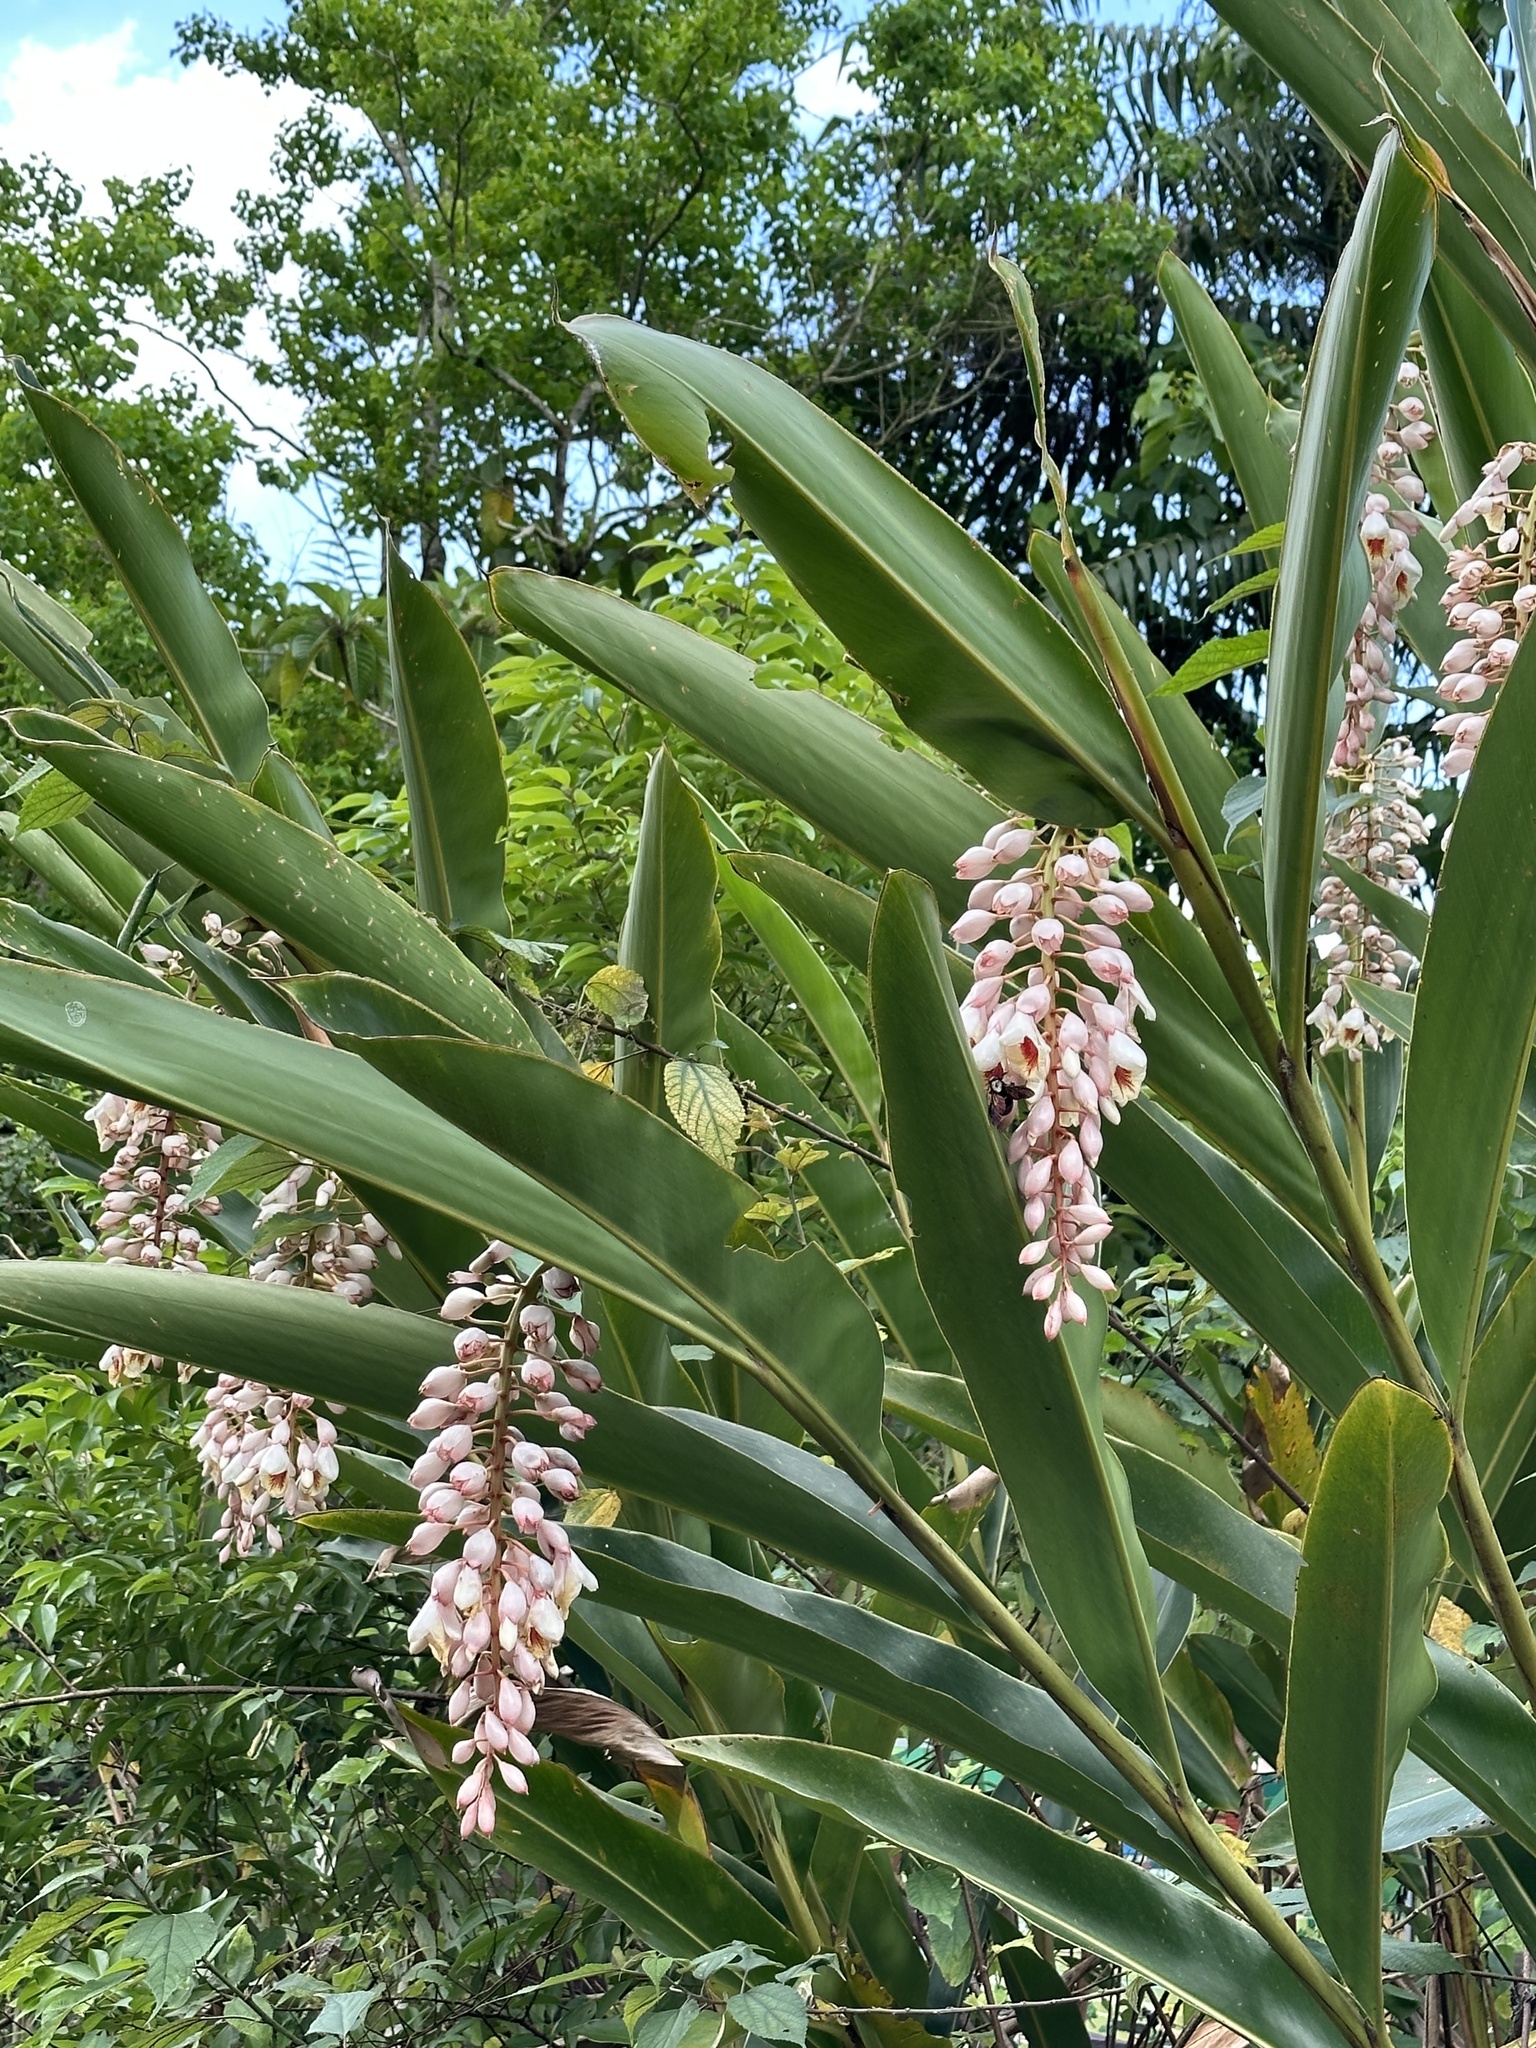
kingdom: Plantae
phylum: Tracheophyta
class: Liliopsida
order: Zingiberales
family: Zingiberaceae
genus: Alpinia
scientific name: Alpinia zerumbet
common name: Shellplant
